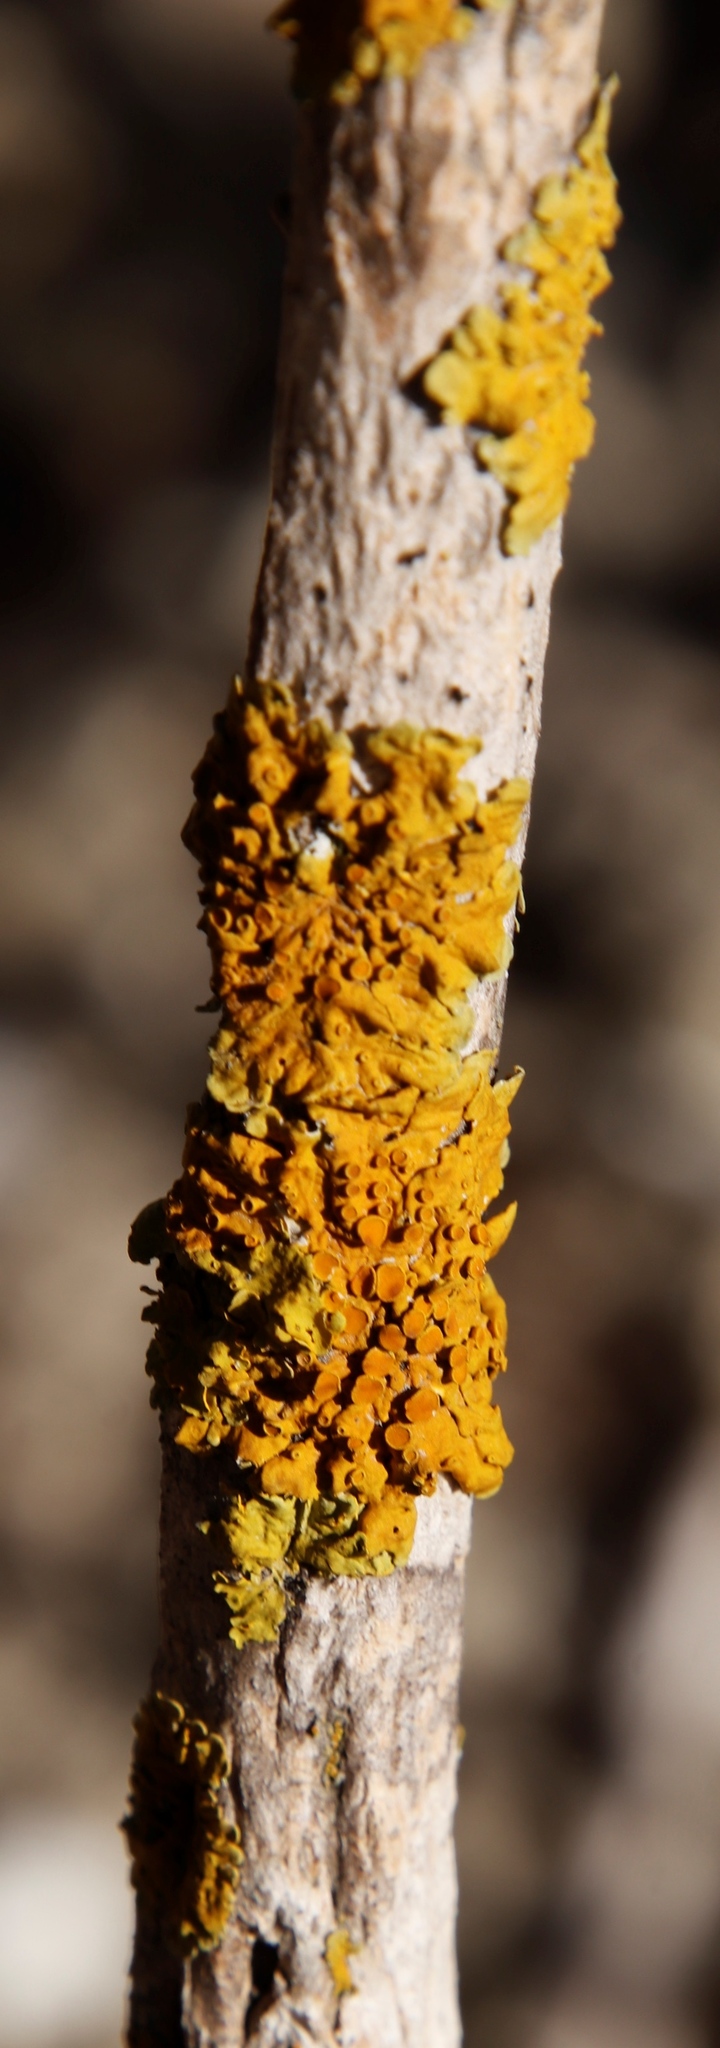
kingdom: Fungi
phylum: Ascomycota
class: Lecanoromycetes
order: Teloschistales
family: Teloschistaceae
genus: Xanthoria
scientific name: Xanthoria parietina
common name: Common orange lichen
